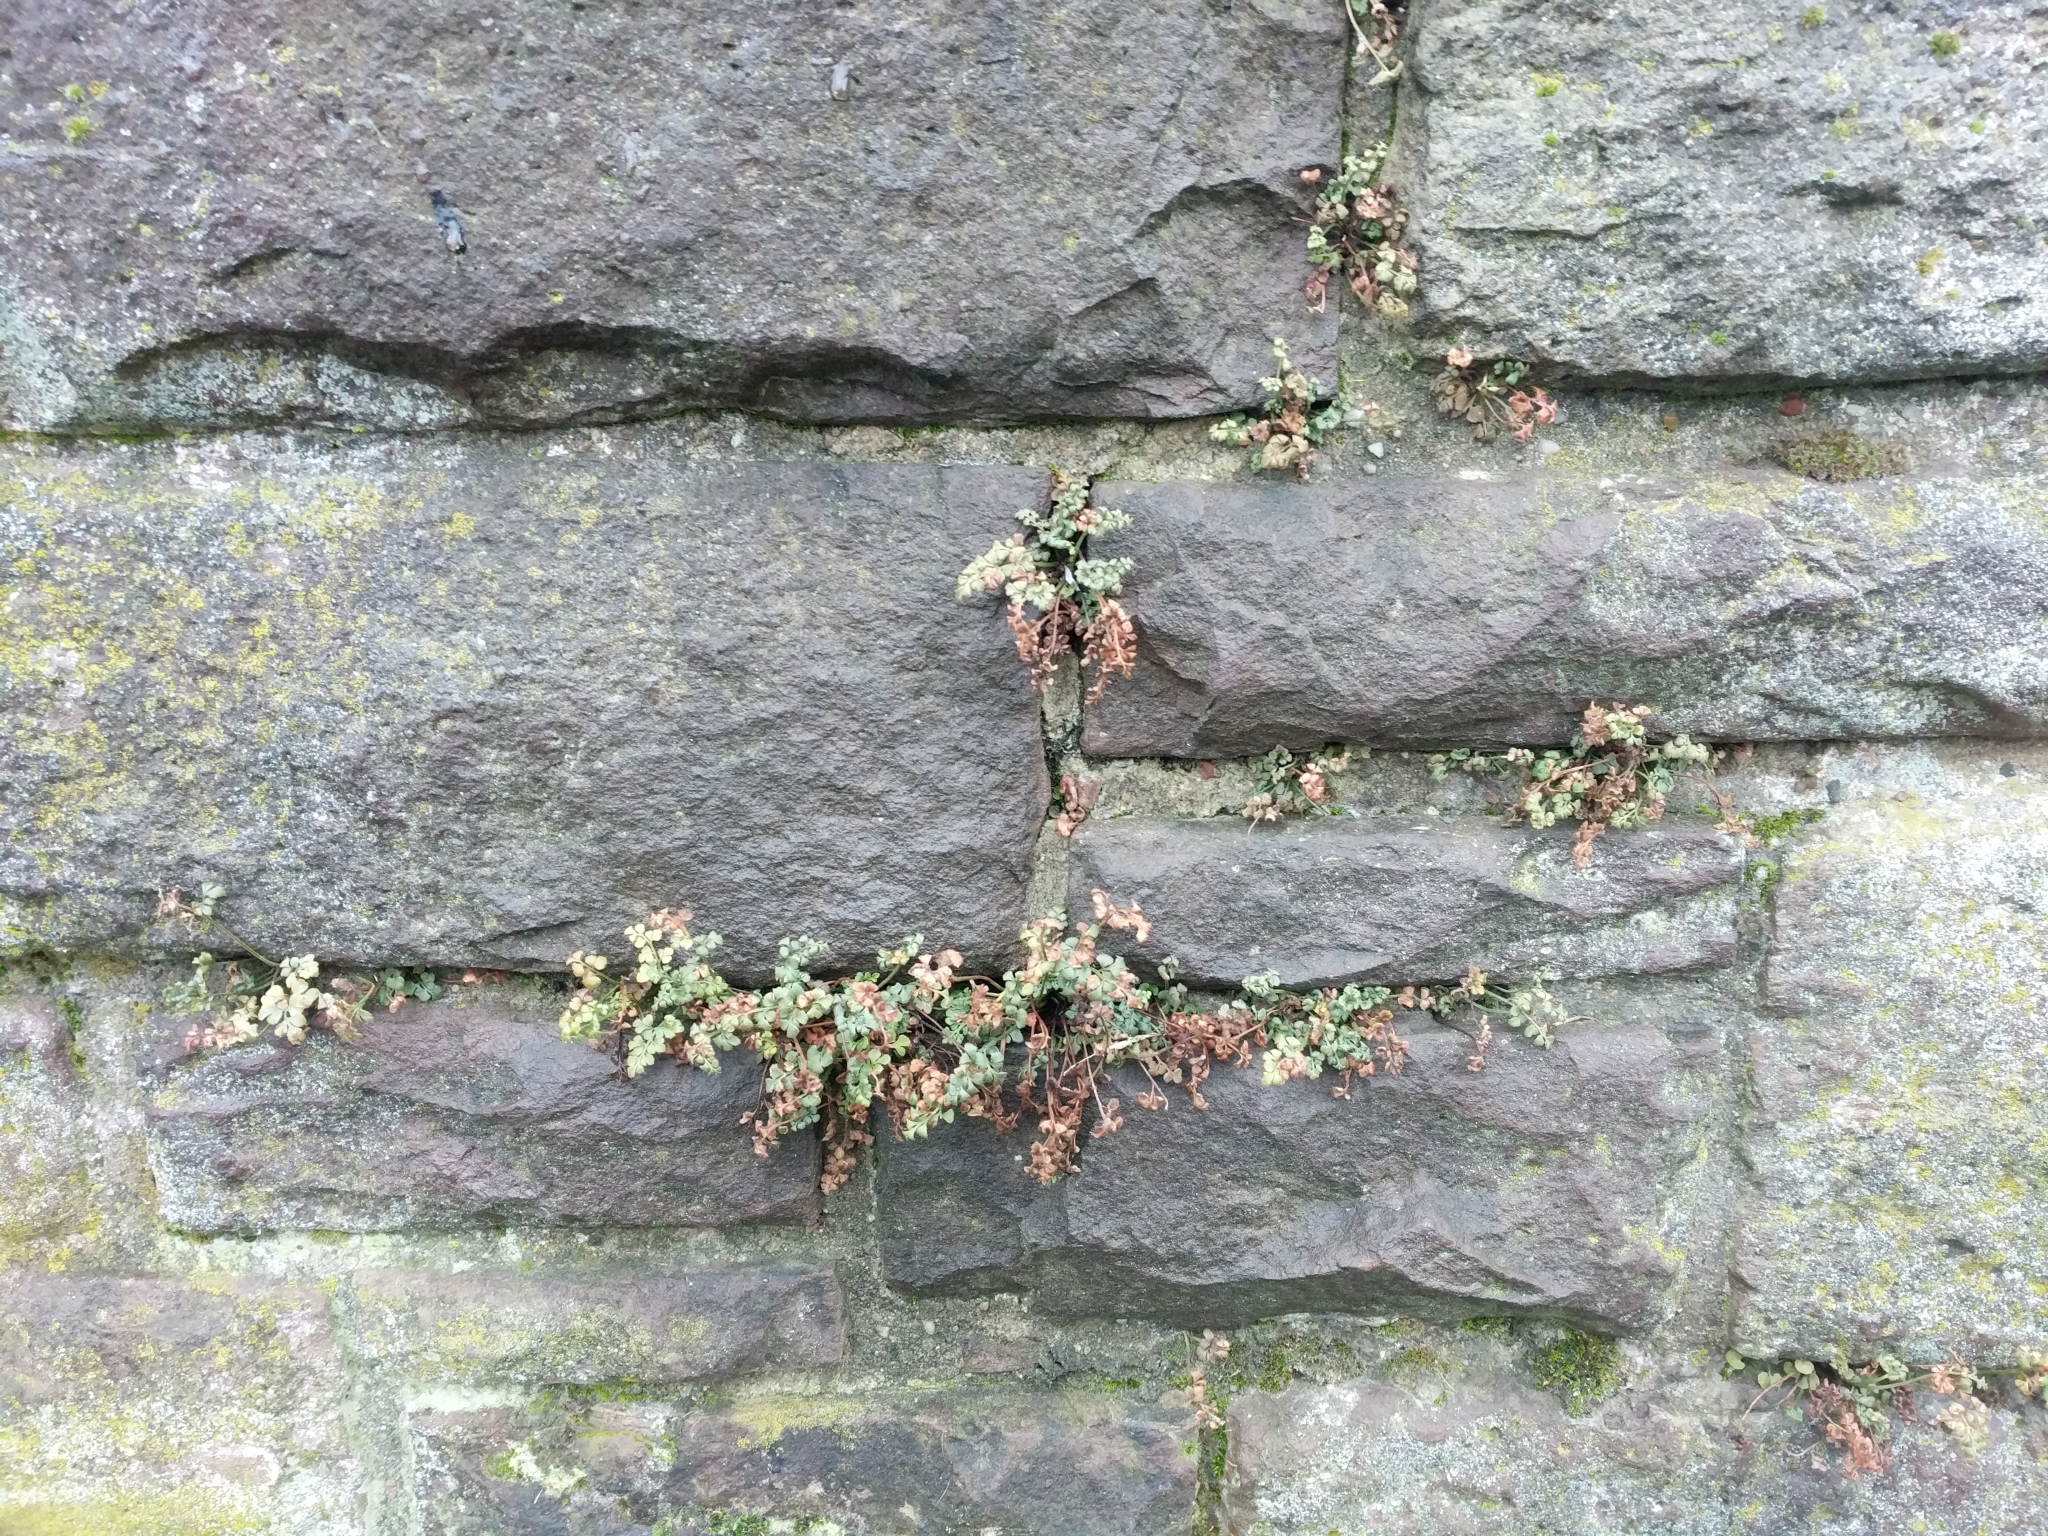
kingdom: Plantae
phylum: Tracheophyta
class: Polypodiopsida
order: Polypodiales
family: Aspleniaceae
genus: Asplenium
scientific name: Asplenium ruta-muraria
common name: Wall-rue
